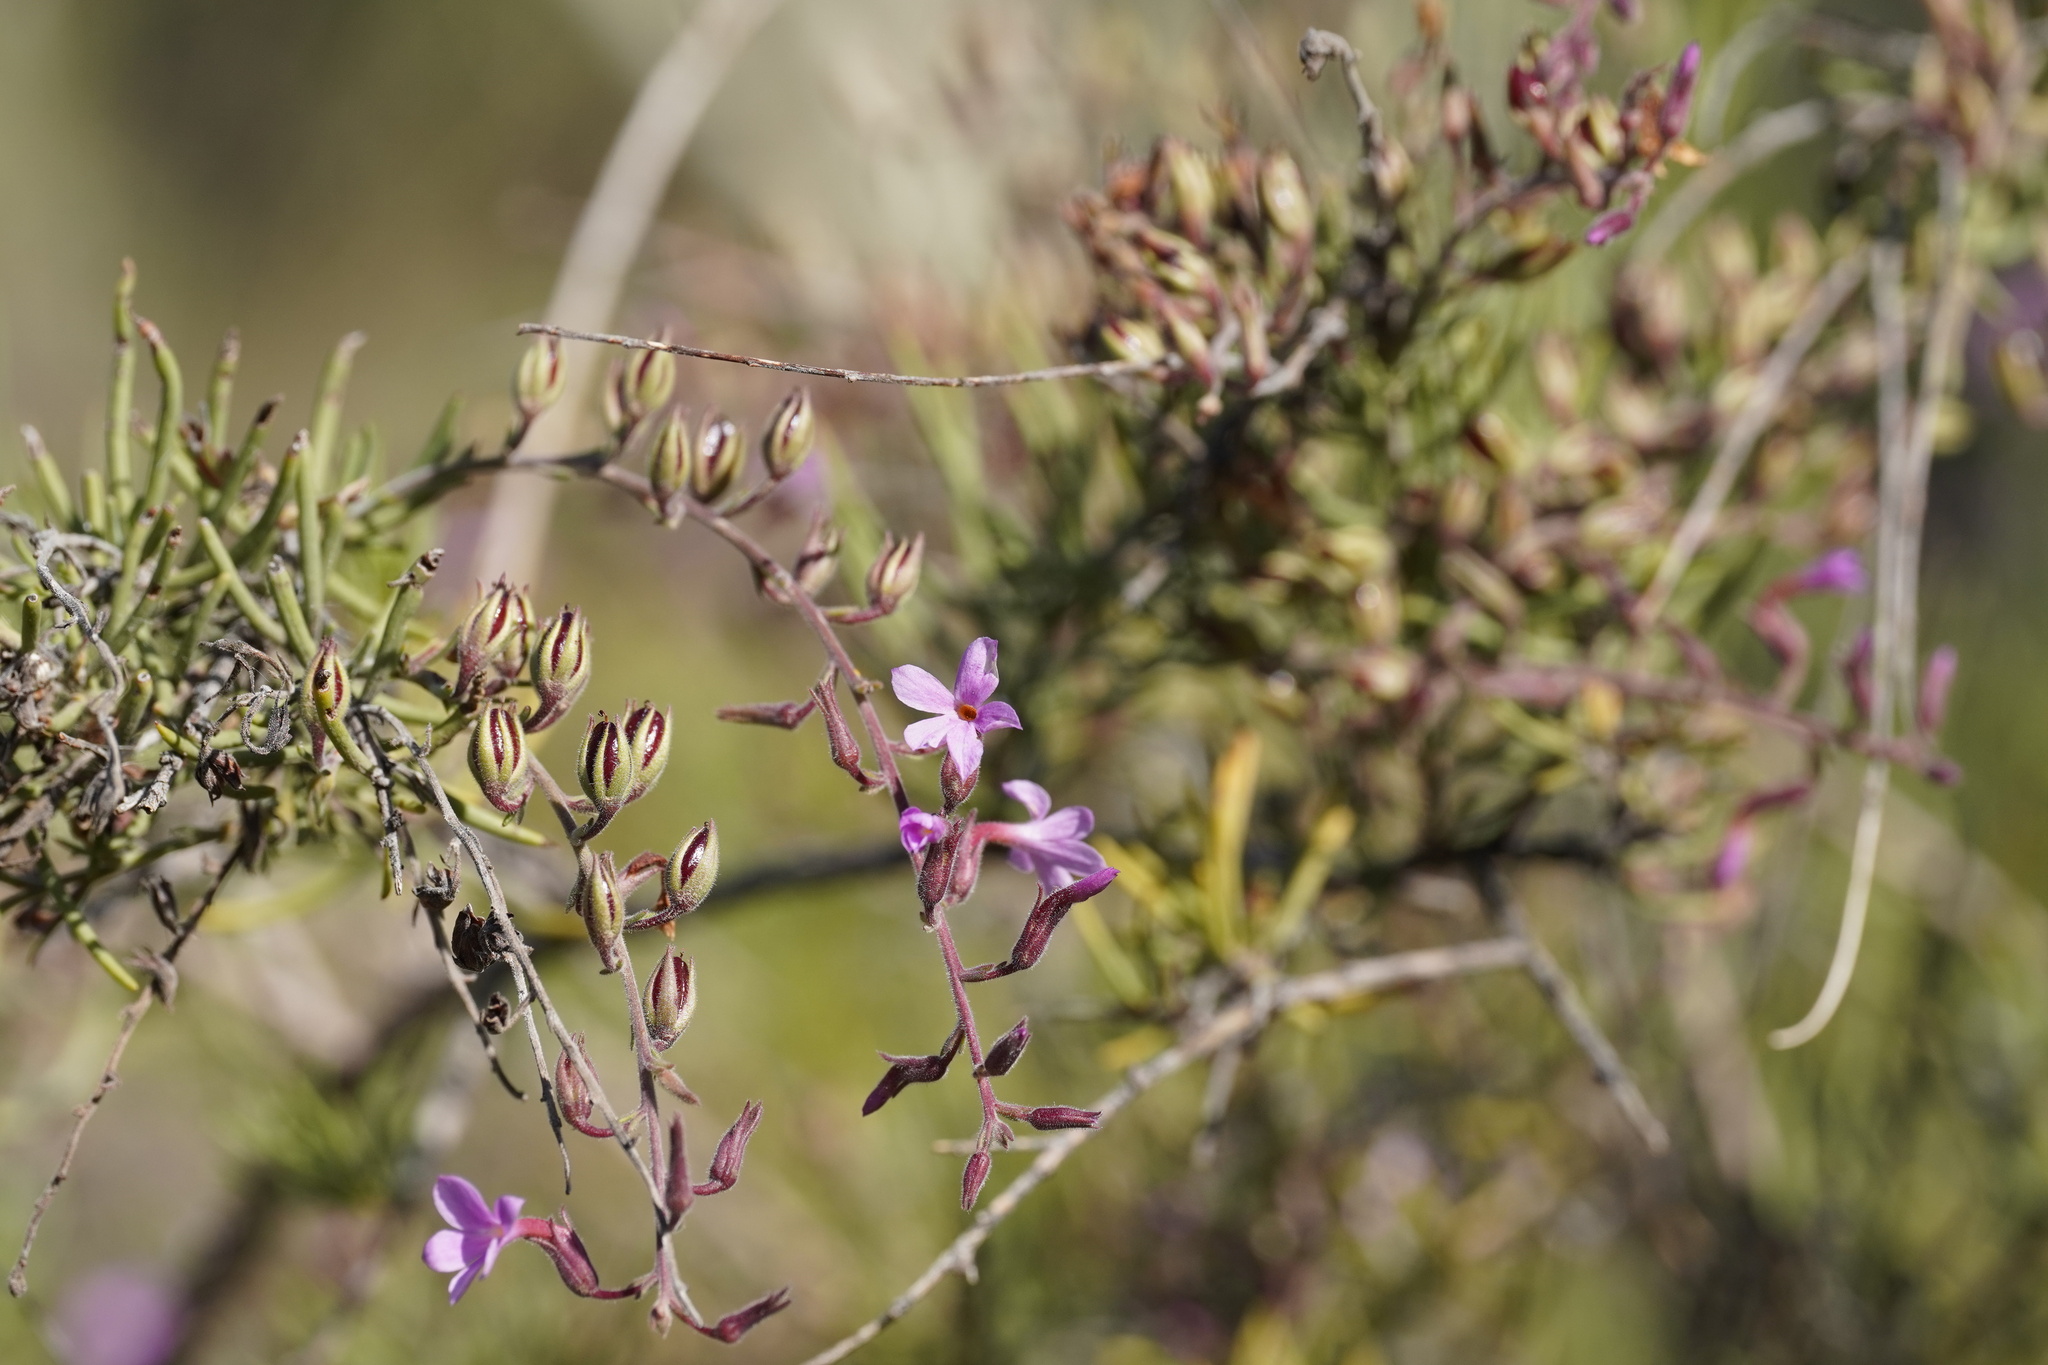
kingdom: Plantae
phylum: Tracheophyta
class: Magnoliopsida
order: Lamiales
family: Plantaginaceae
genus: Campylanthus
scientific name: Campylanthus salsoloides
